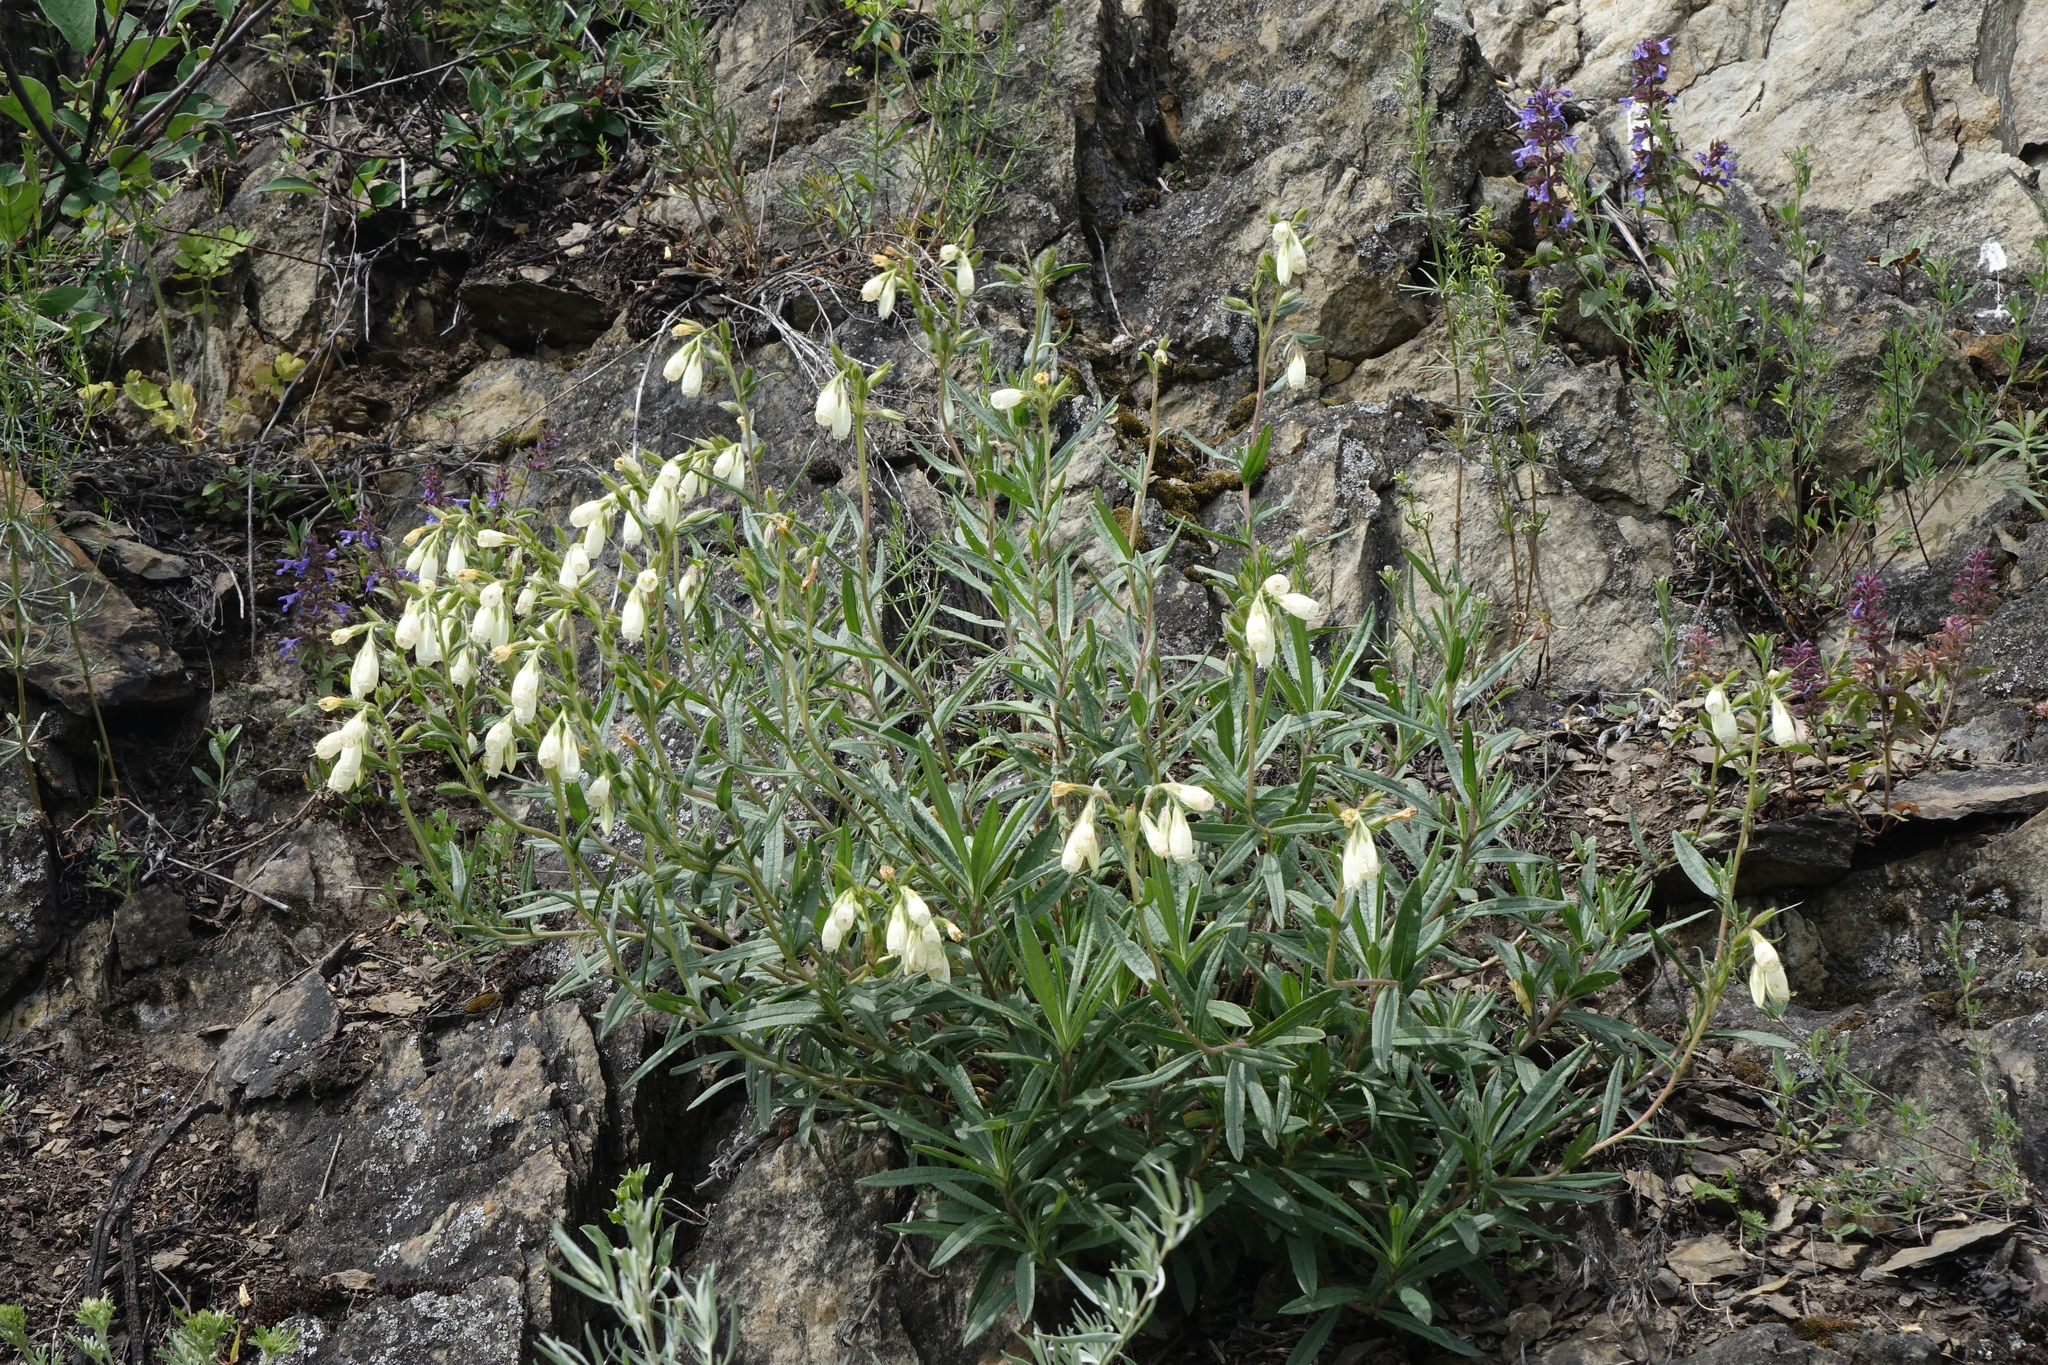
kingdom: Plantae
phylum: Tracheophyta
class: Magnoliopsida
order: Boraginales
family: Boraginaceae
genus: Onosma
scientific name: Onosma simplicissima
